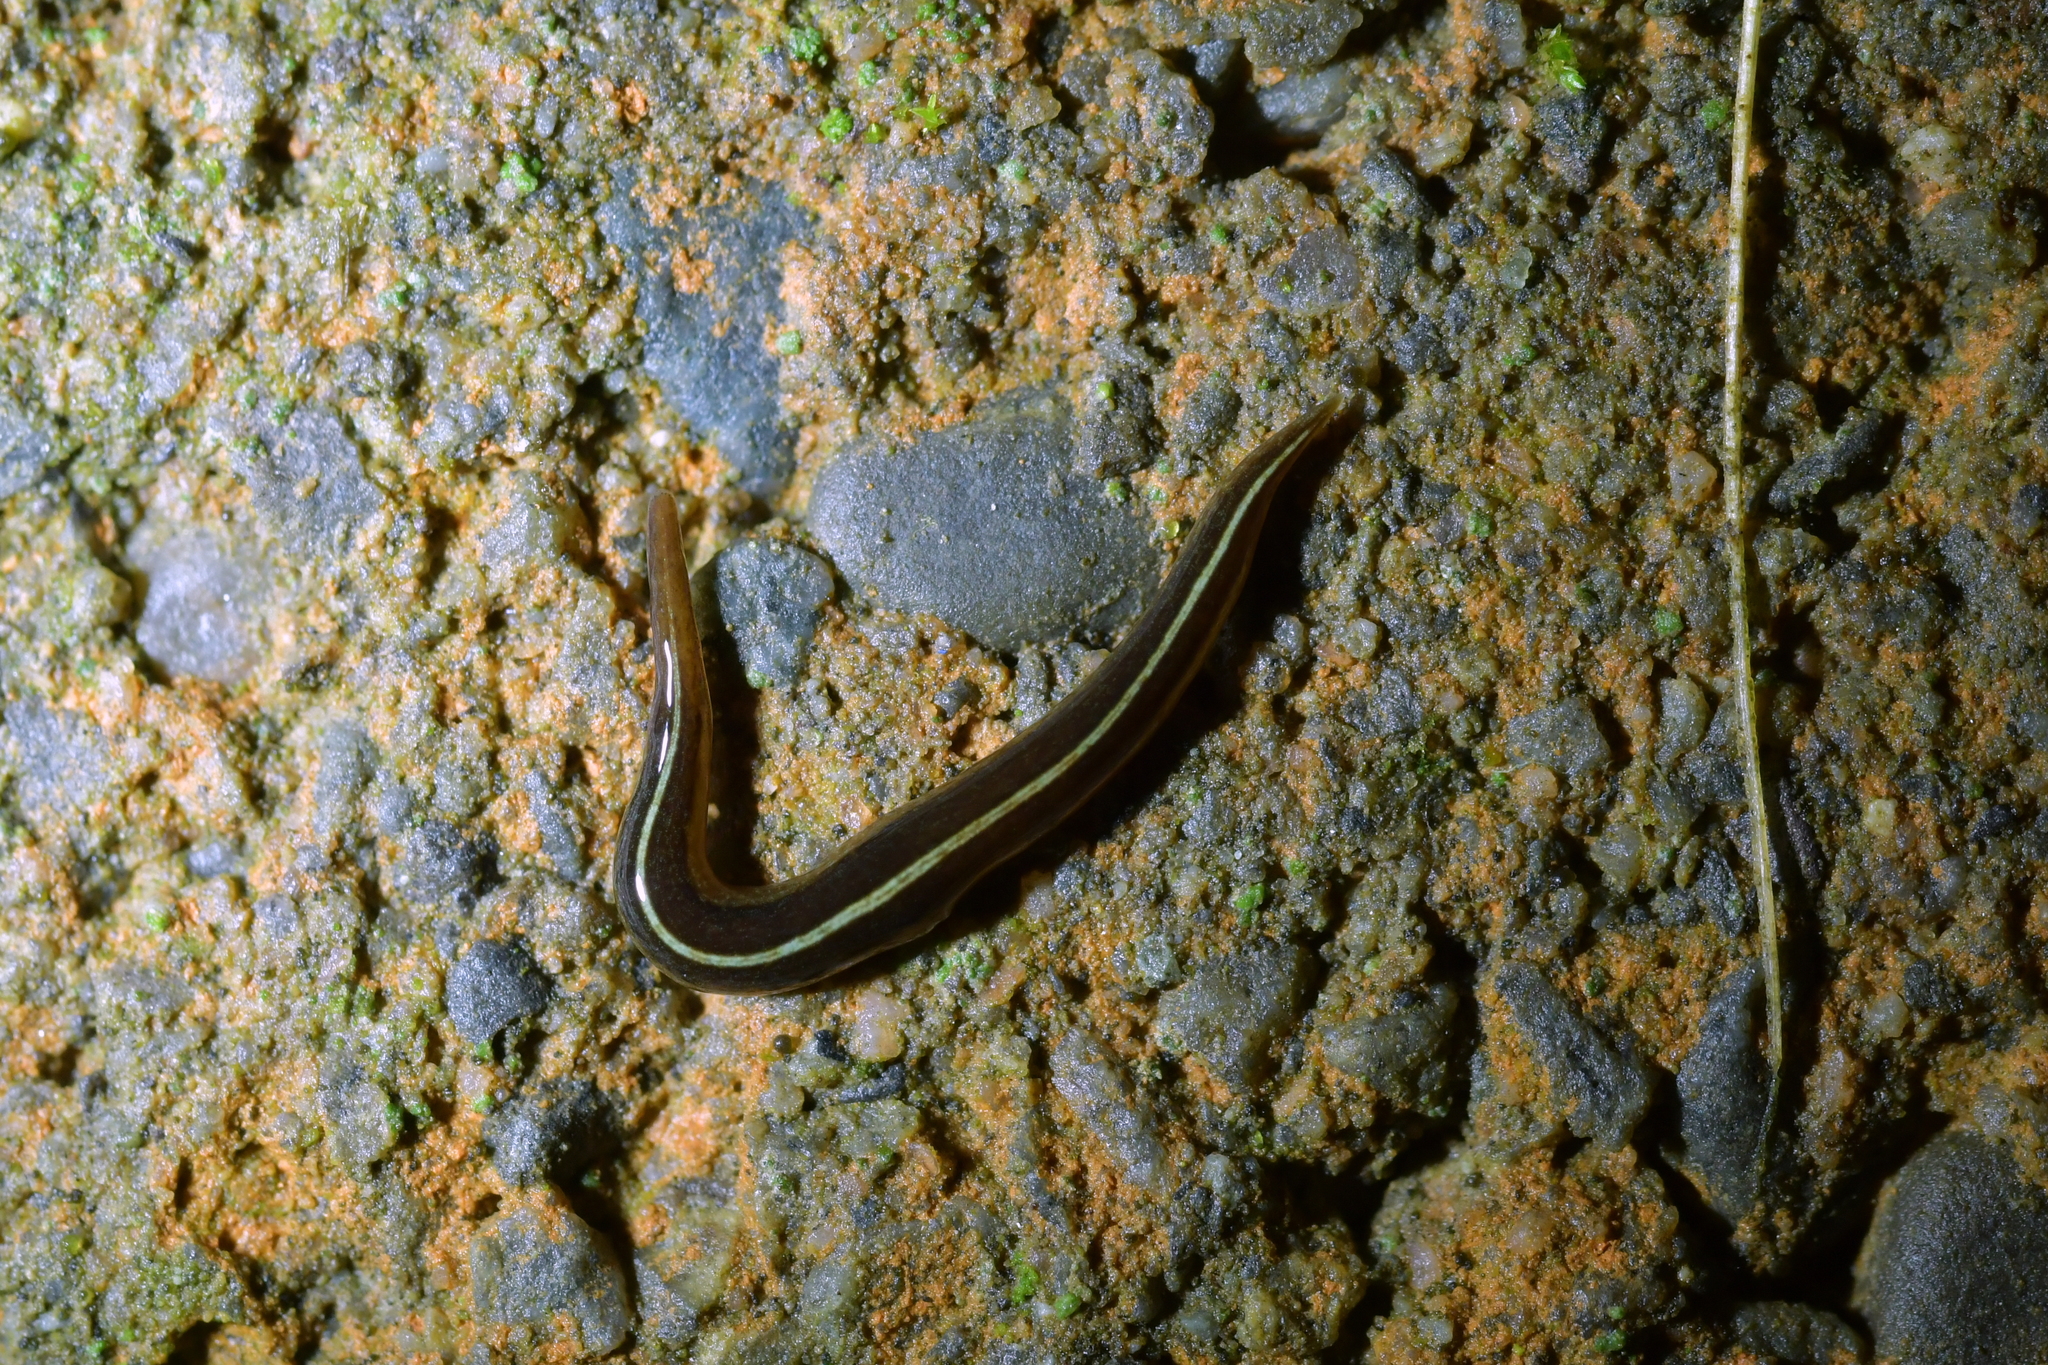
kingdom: Animalia
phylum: Platyhelminthes
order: Tricladida
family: Geoplanidae
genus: Newzealandia
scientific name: Newzealandia graffii
